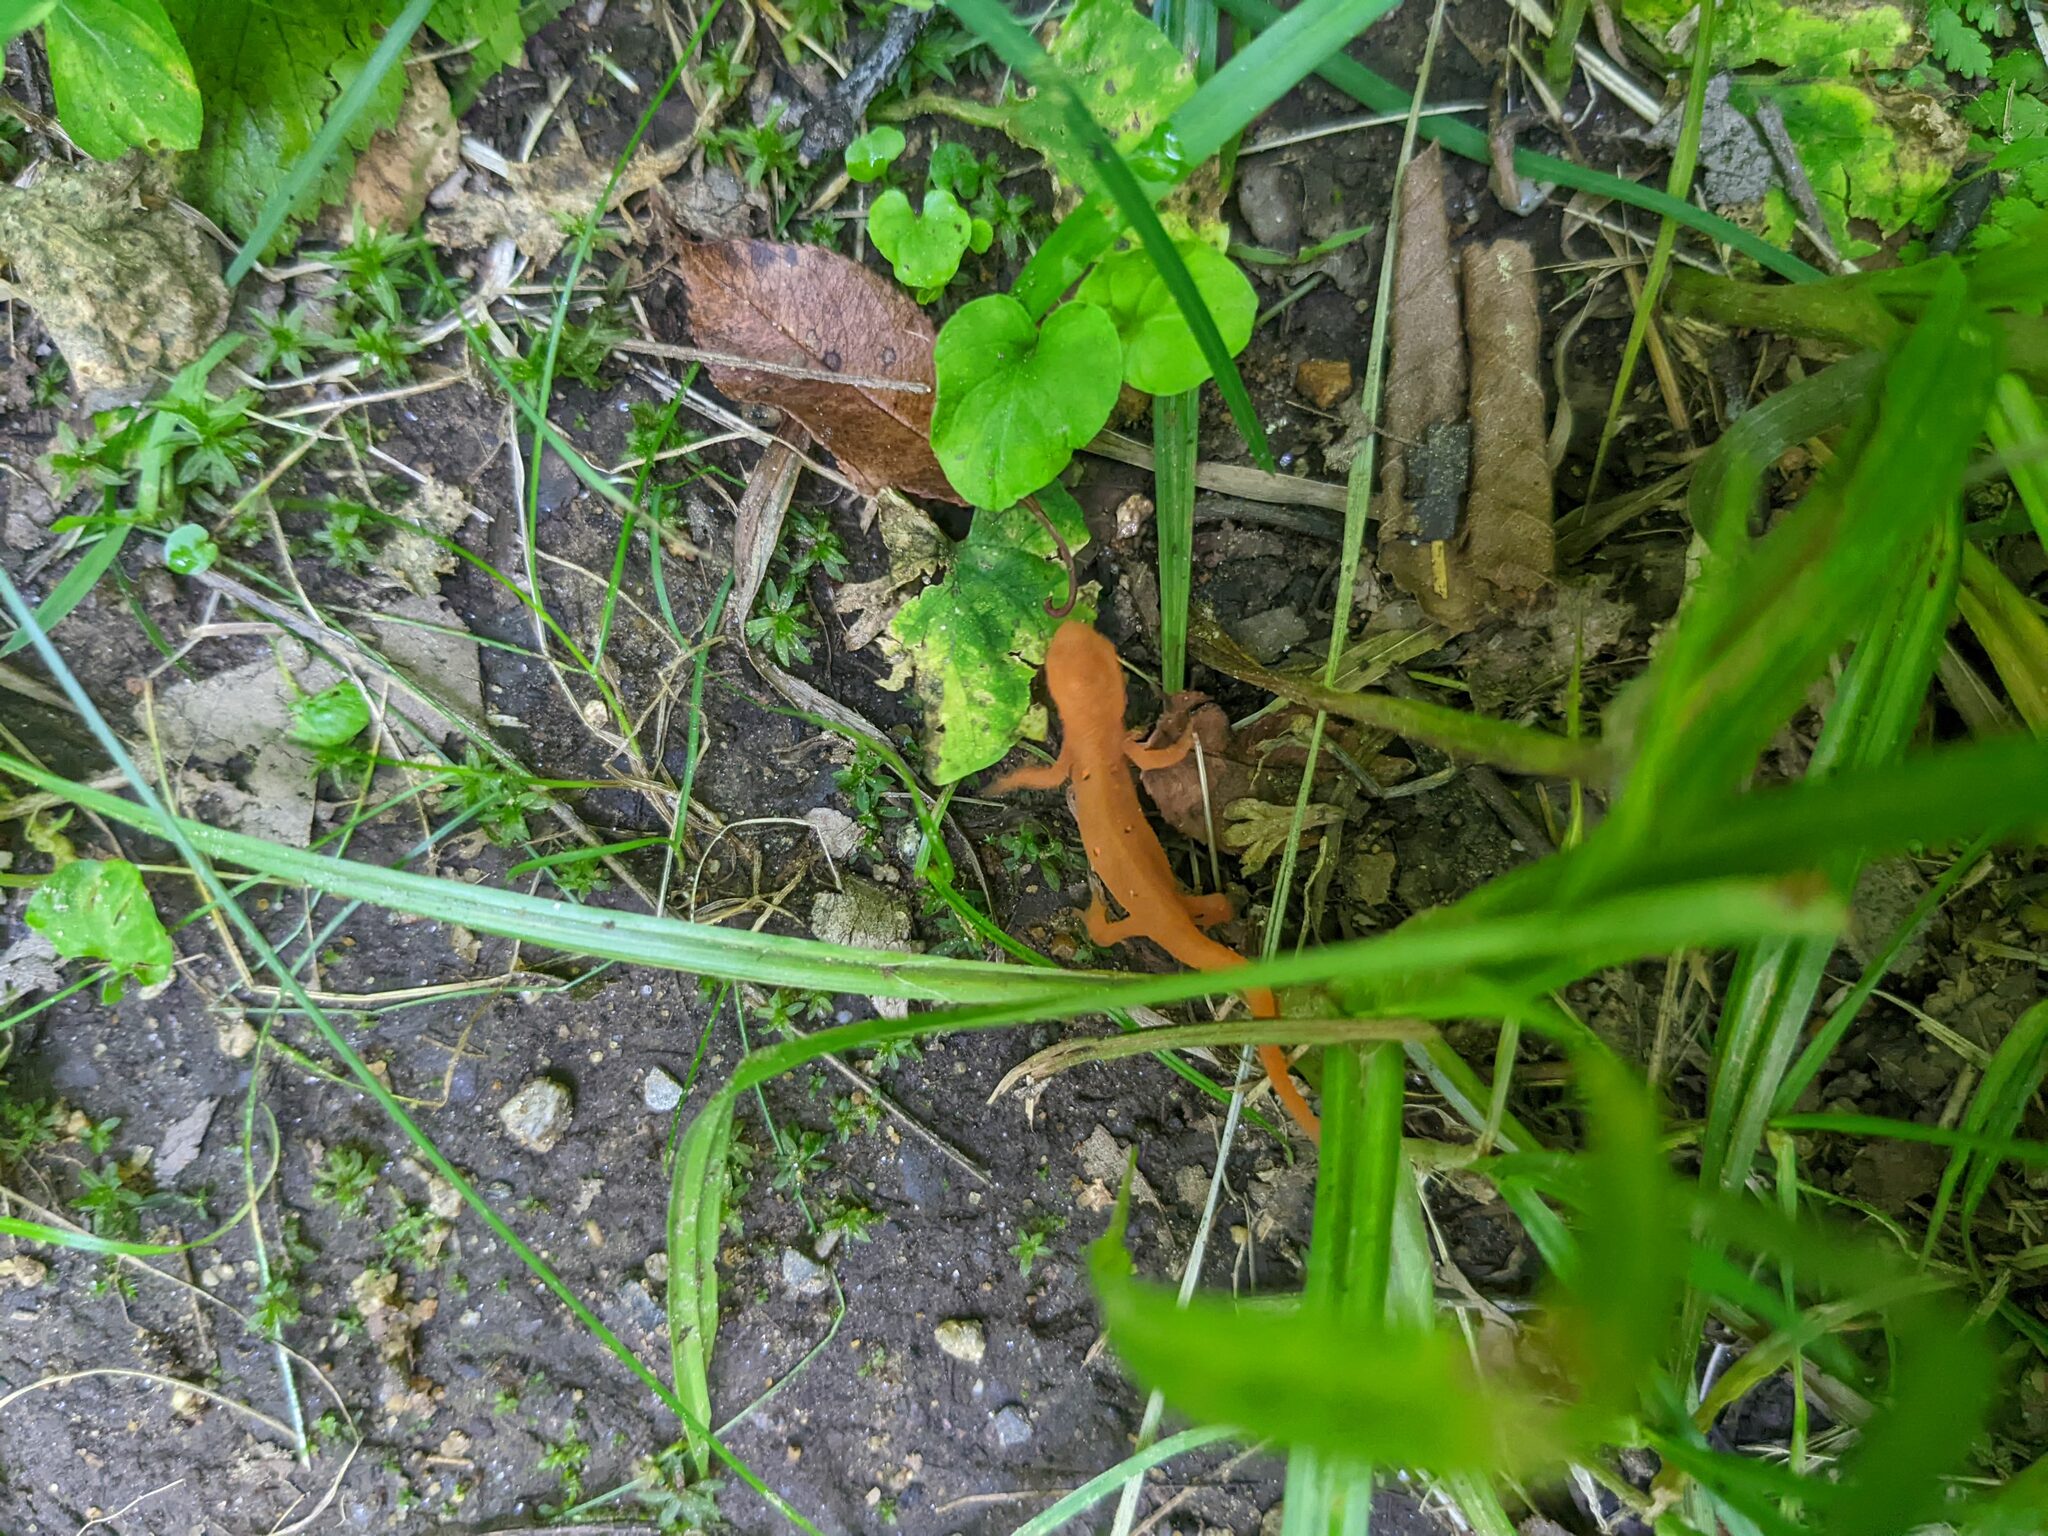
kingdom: Animalia
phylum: Chordata
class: Amphibia
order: Caudata
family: Salamandridae
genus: Notophthalmus
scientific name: Notophthalmus viridescens
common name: Eastern newt
